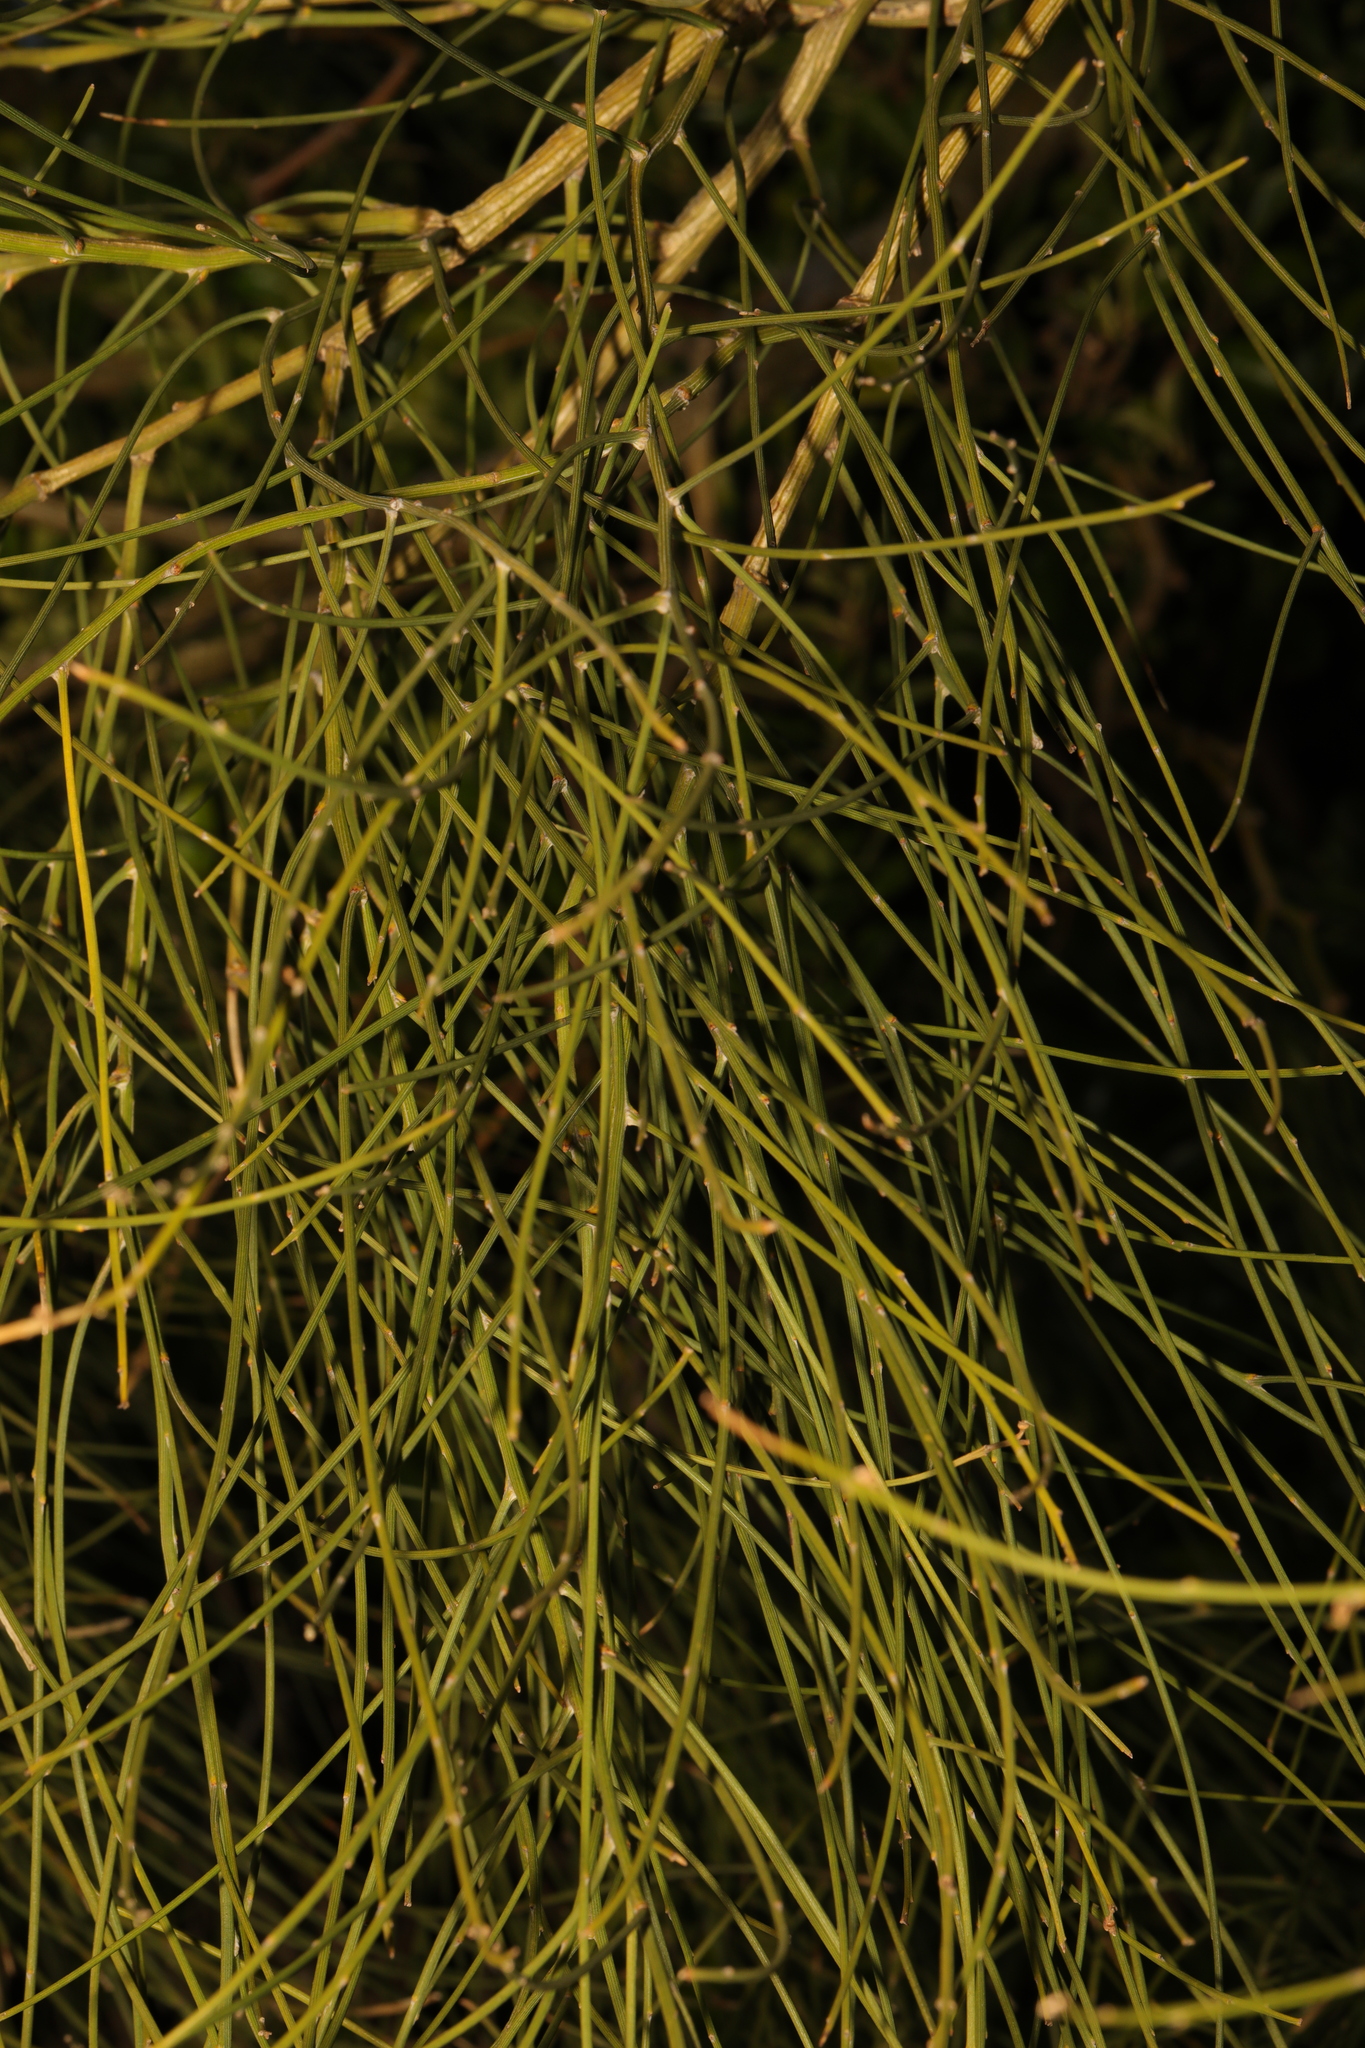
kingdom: Plantae
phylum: Tracheophyta
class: Magnoliopsida
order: Fabales
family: Fabaceae
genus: Cytisus
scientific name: Cytisus scoparius
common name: Scotch broom
